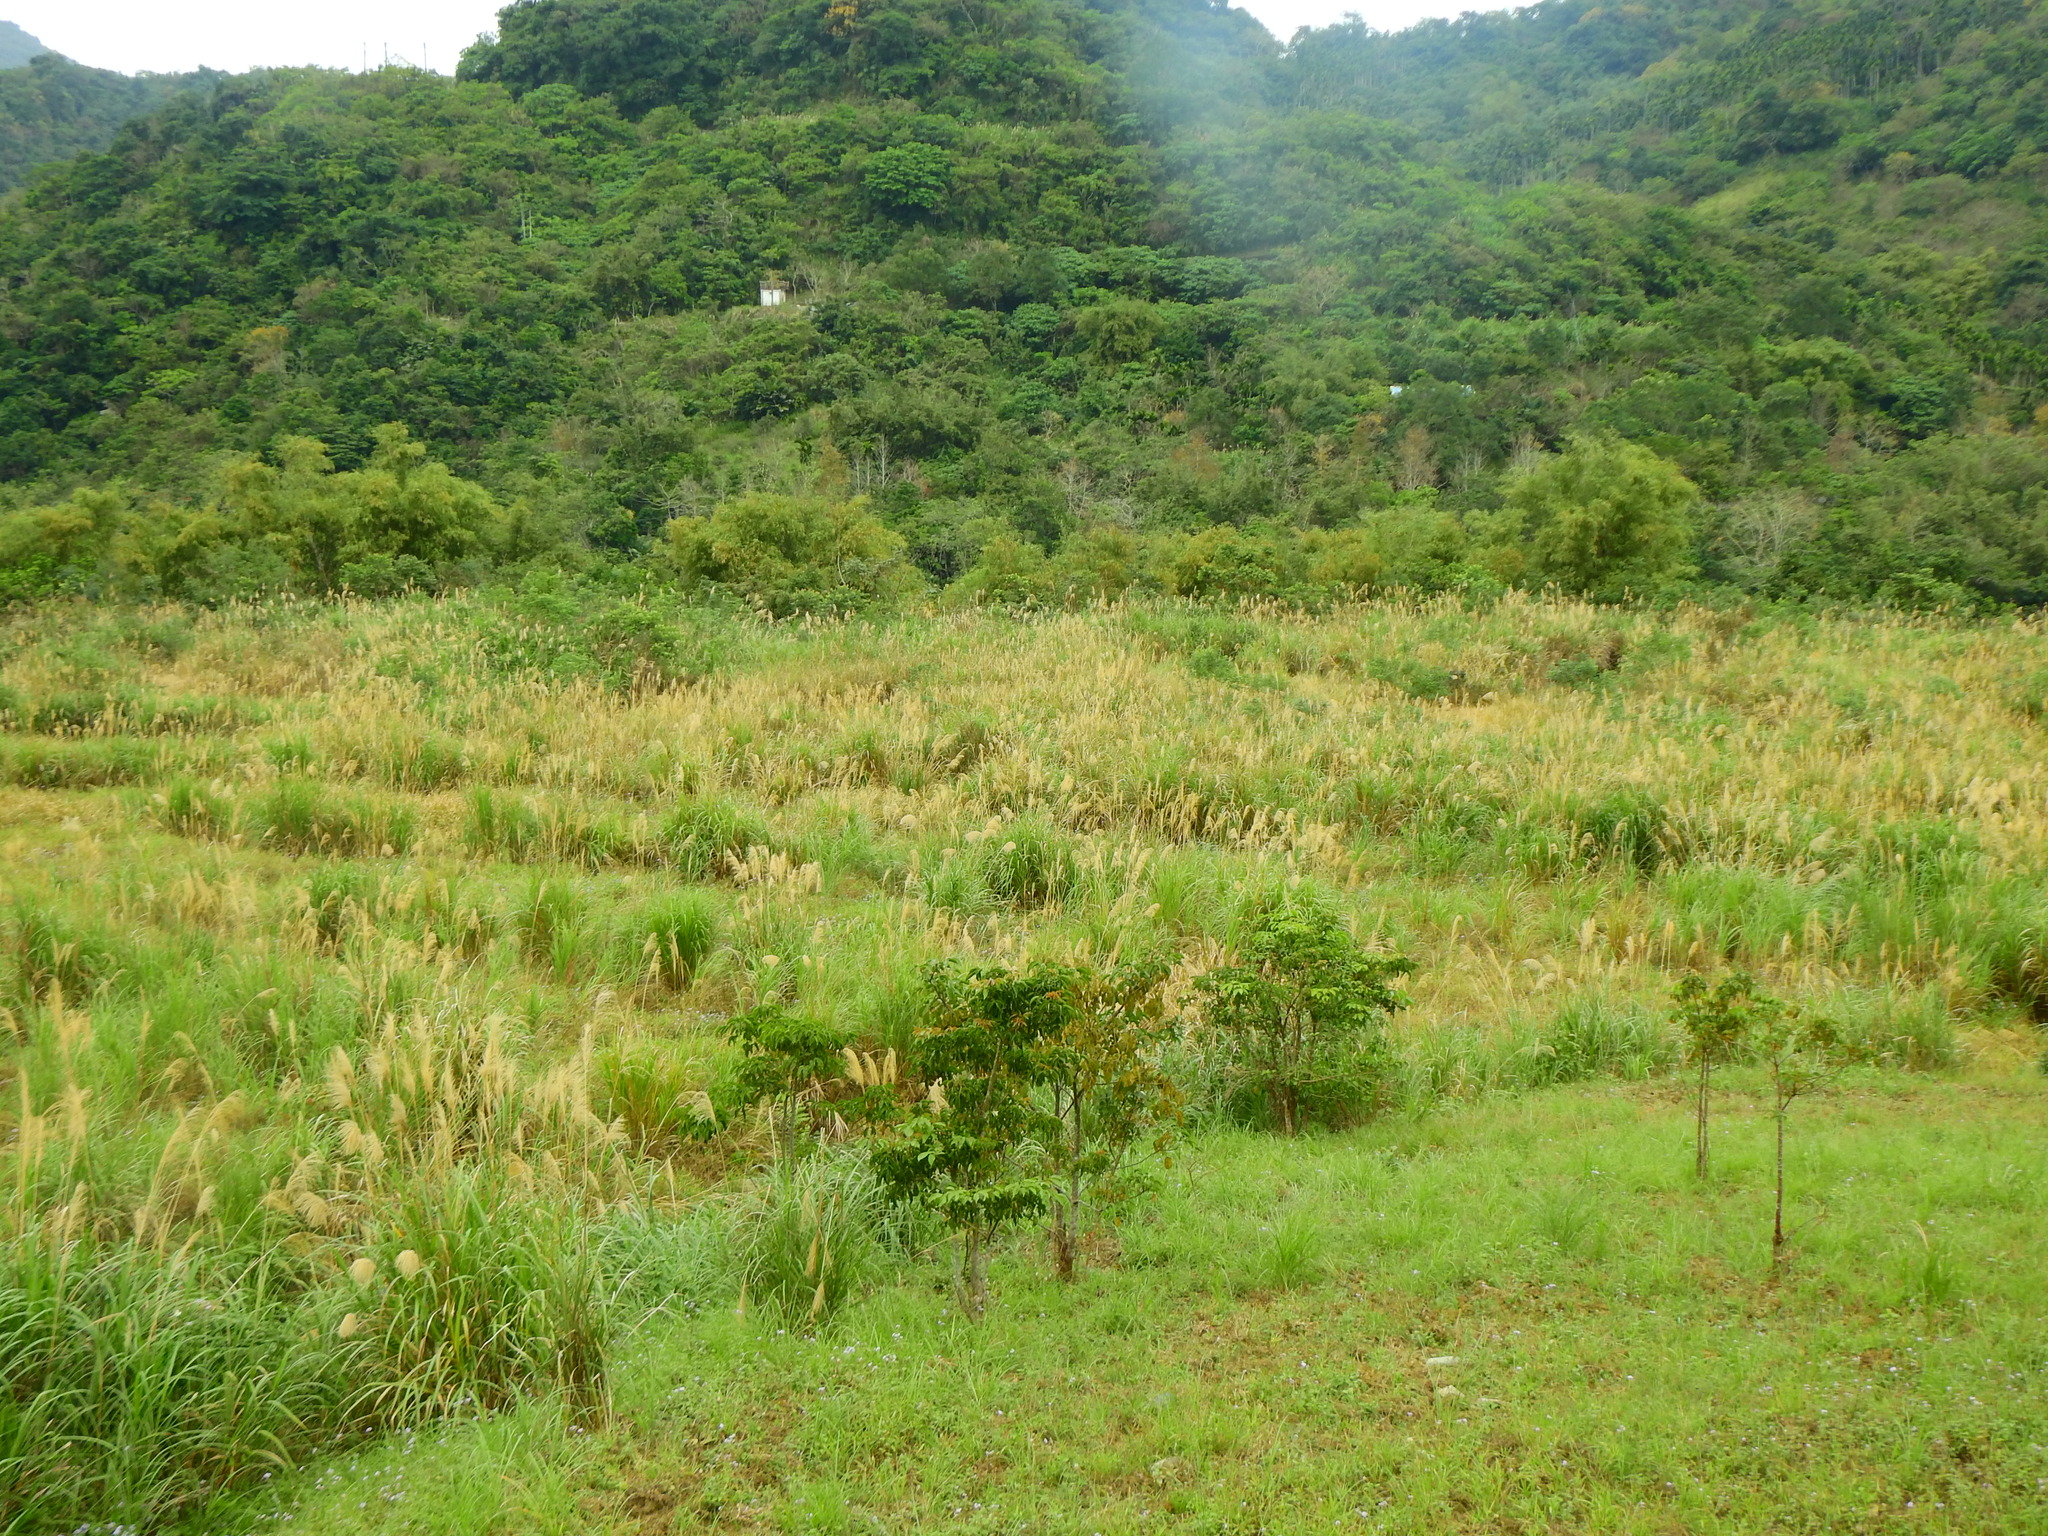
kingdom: Plantae
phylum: Tracheophyta
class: Liliopsida
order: Poales
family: Poaceae
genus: Miscanthus
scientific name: Miscanthus sinensis
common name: Chinese silvergrass
